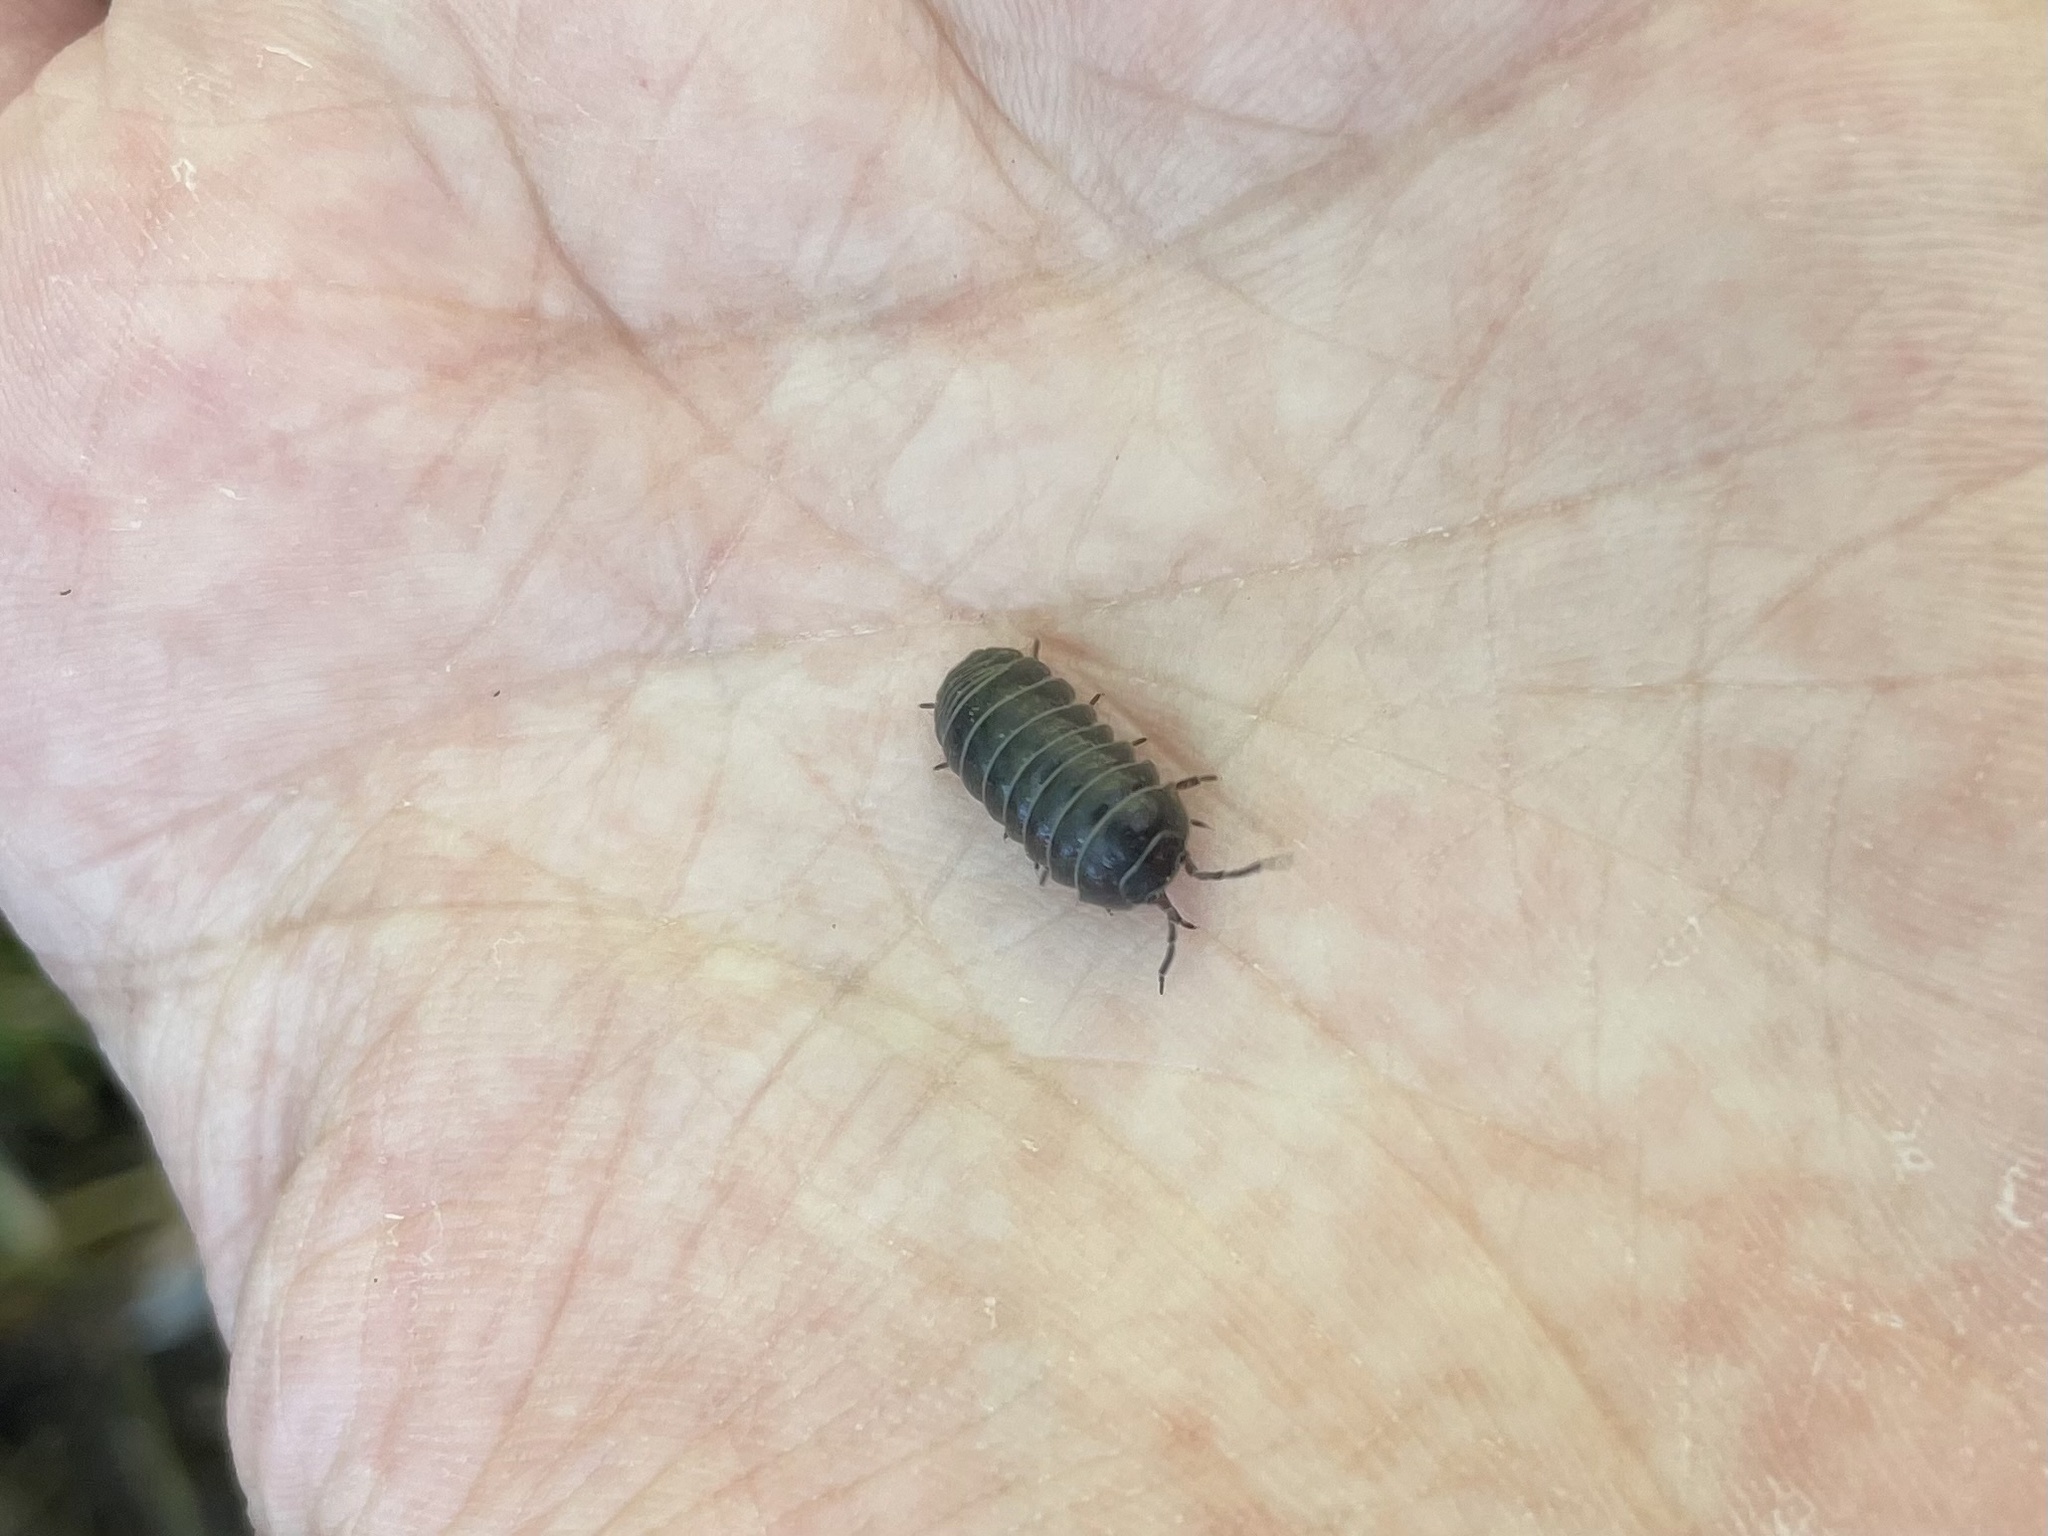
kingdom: Animalia
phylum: Arthropoda
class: Malacostraca
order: Isopoda
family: Armadillidiidae
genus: Armadillidium
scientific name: Armadillidium vulgare
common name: Common pill woodlouse
